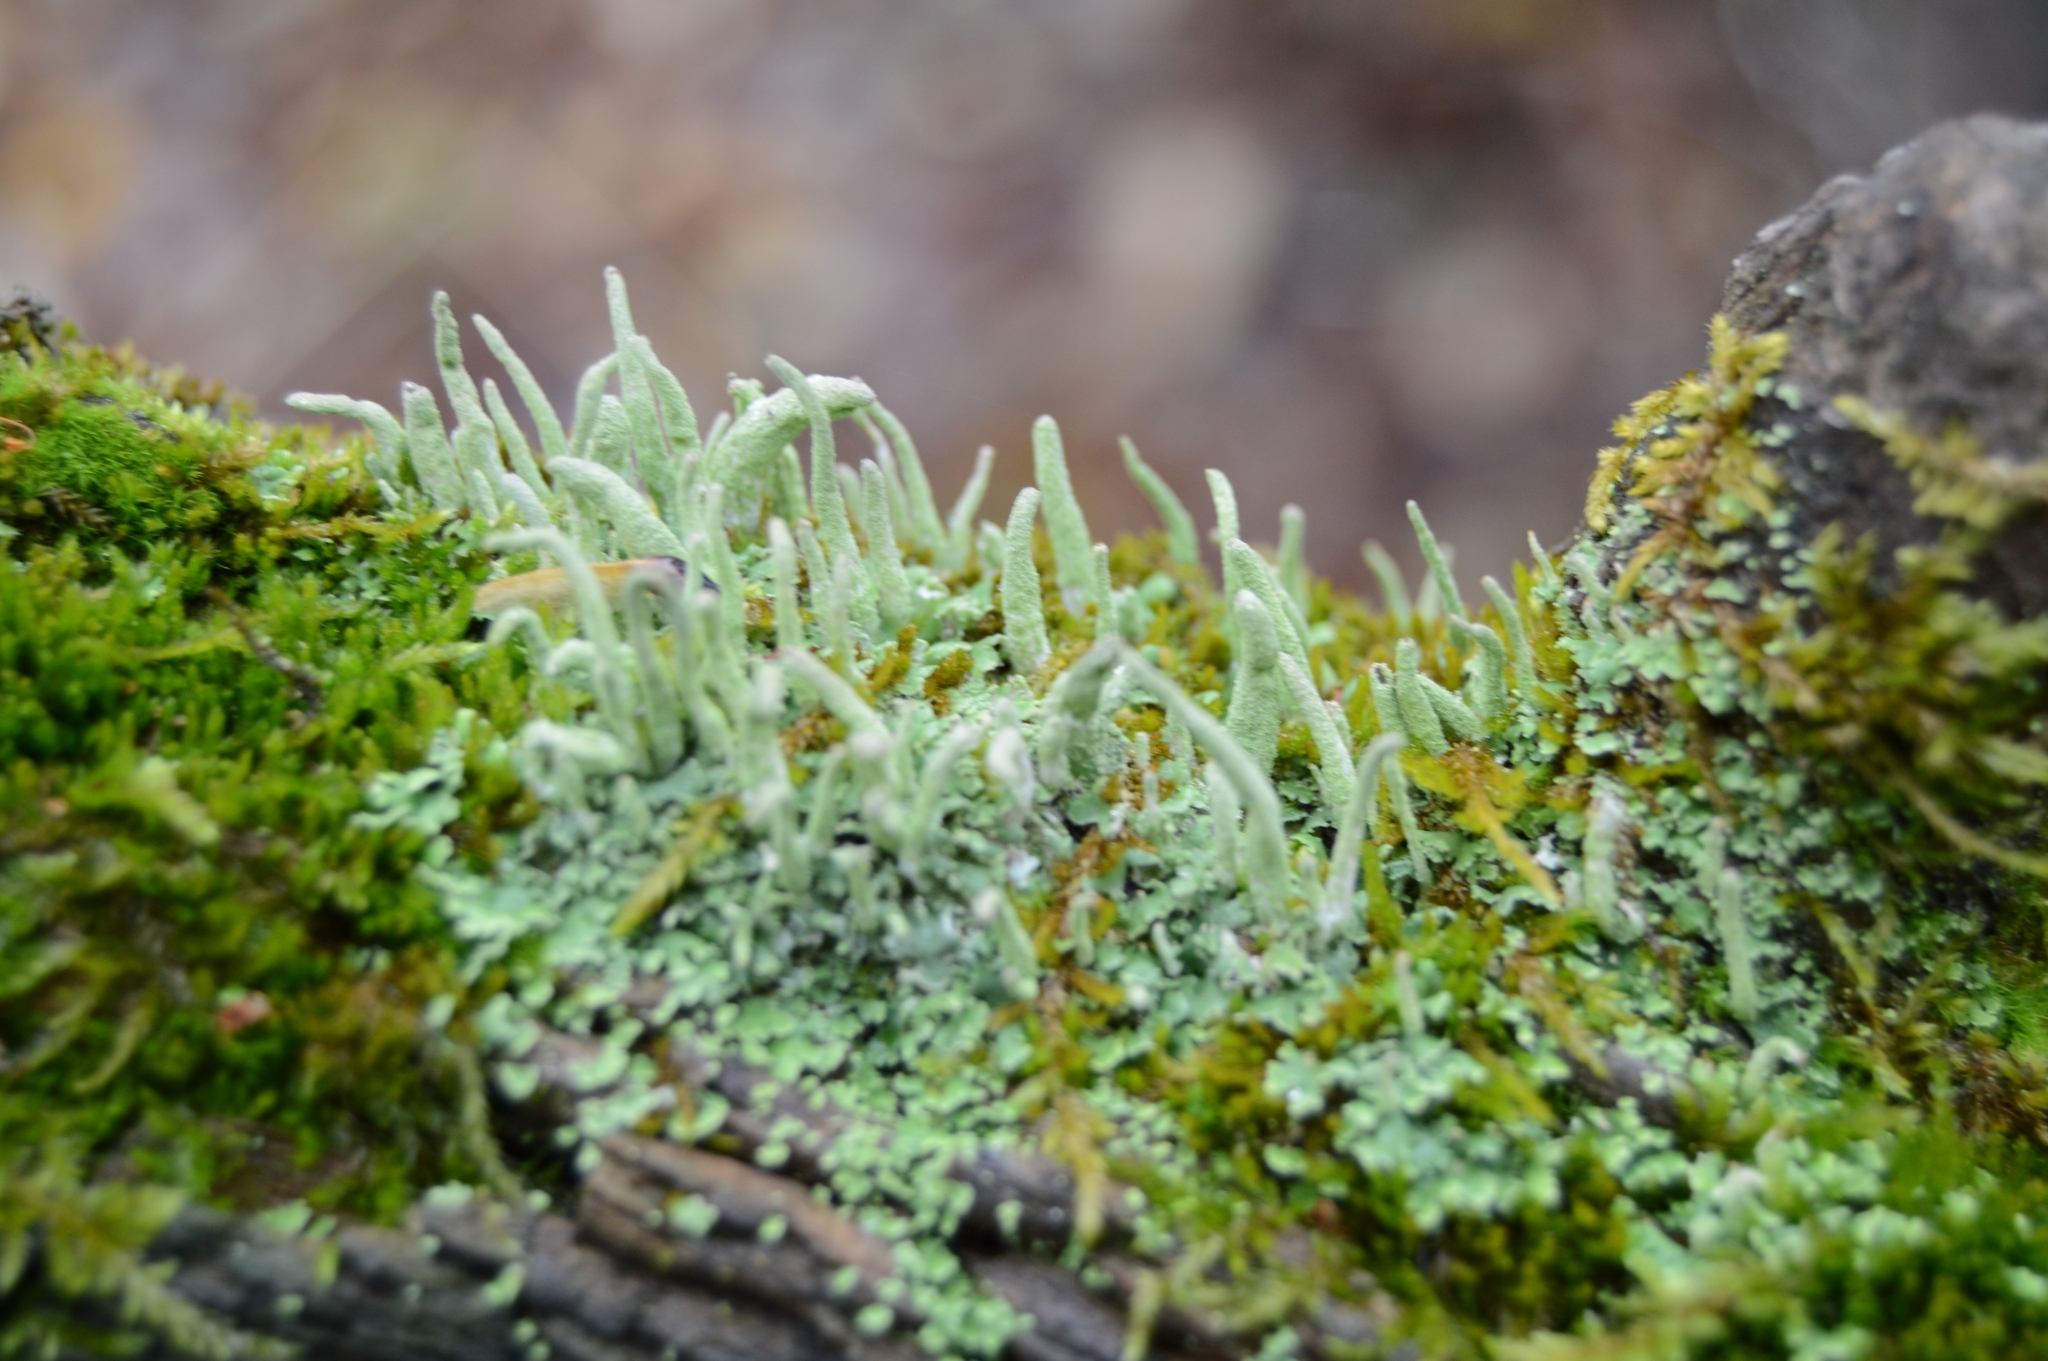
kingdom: Fungi
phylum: Ascomycota
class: Lecanoromycetes
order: Lecanorales
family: Cladoniaceae
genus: Cladonia
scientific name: Cladonia coniocraea
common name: Common powderhorn
